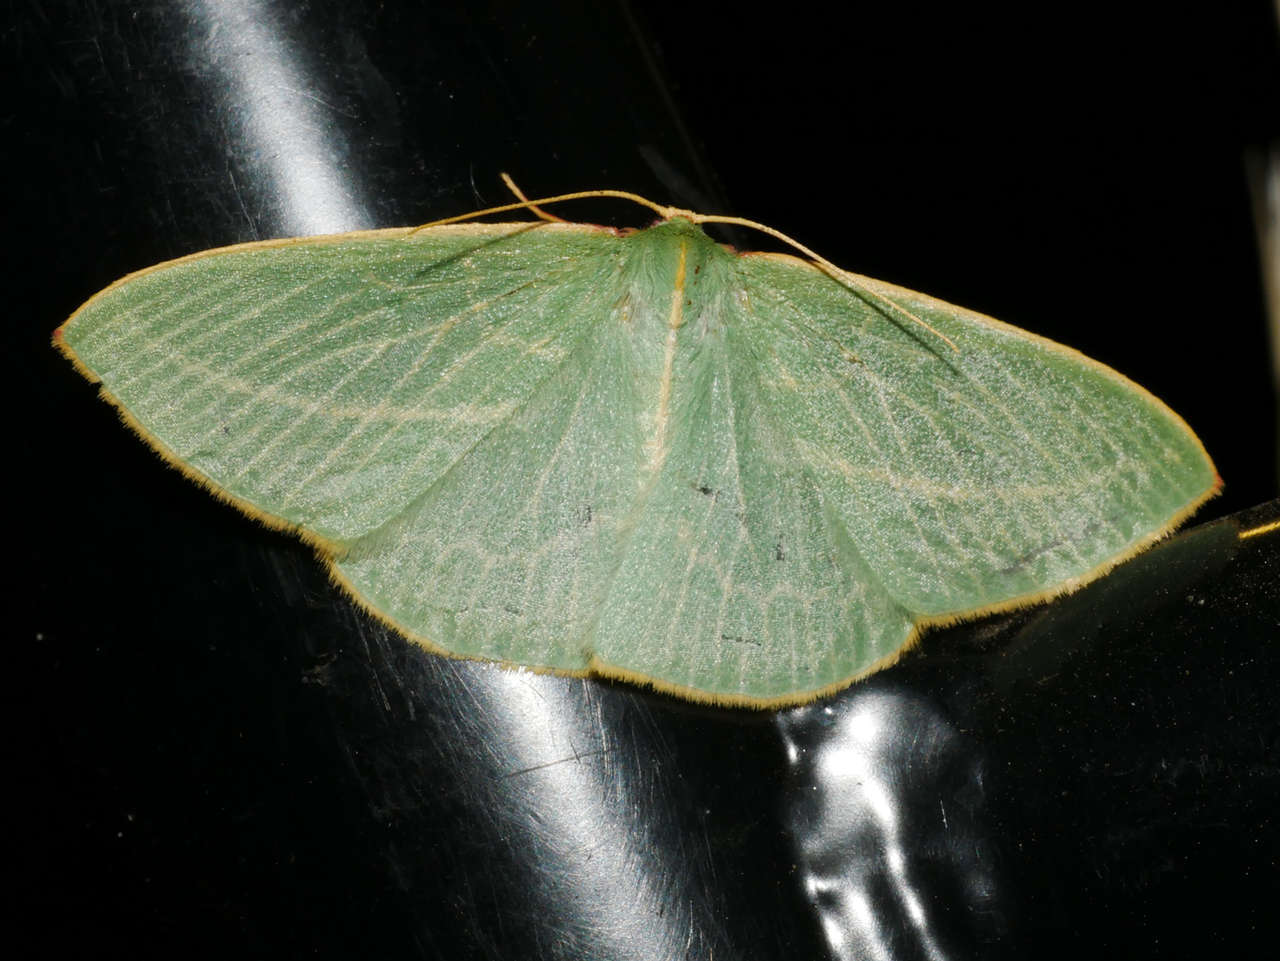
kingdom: Animalia
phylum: Arthropoda
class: Insecta
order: Lepidoptera
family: Geometridae
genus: Chlorocoma
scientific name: Chlorocoma carenaria
